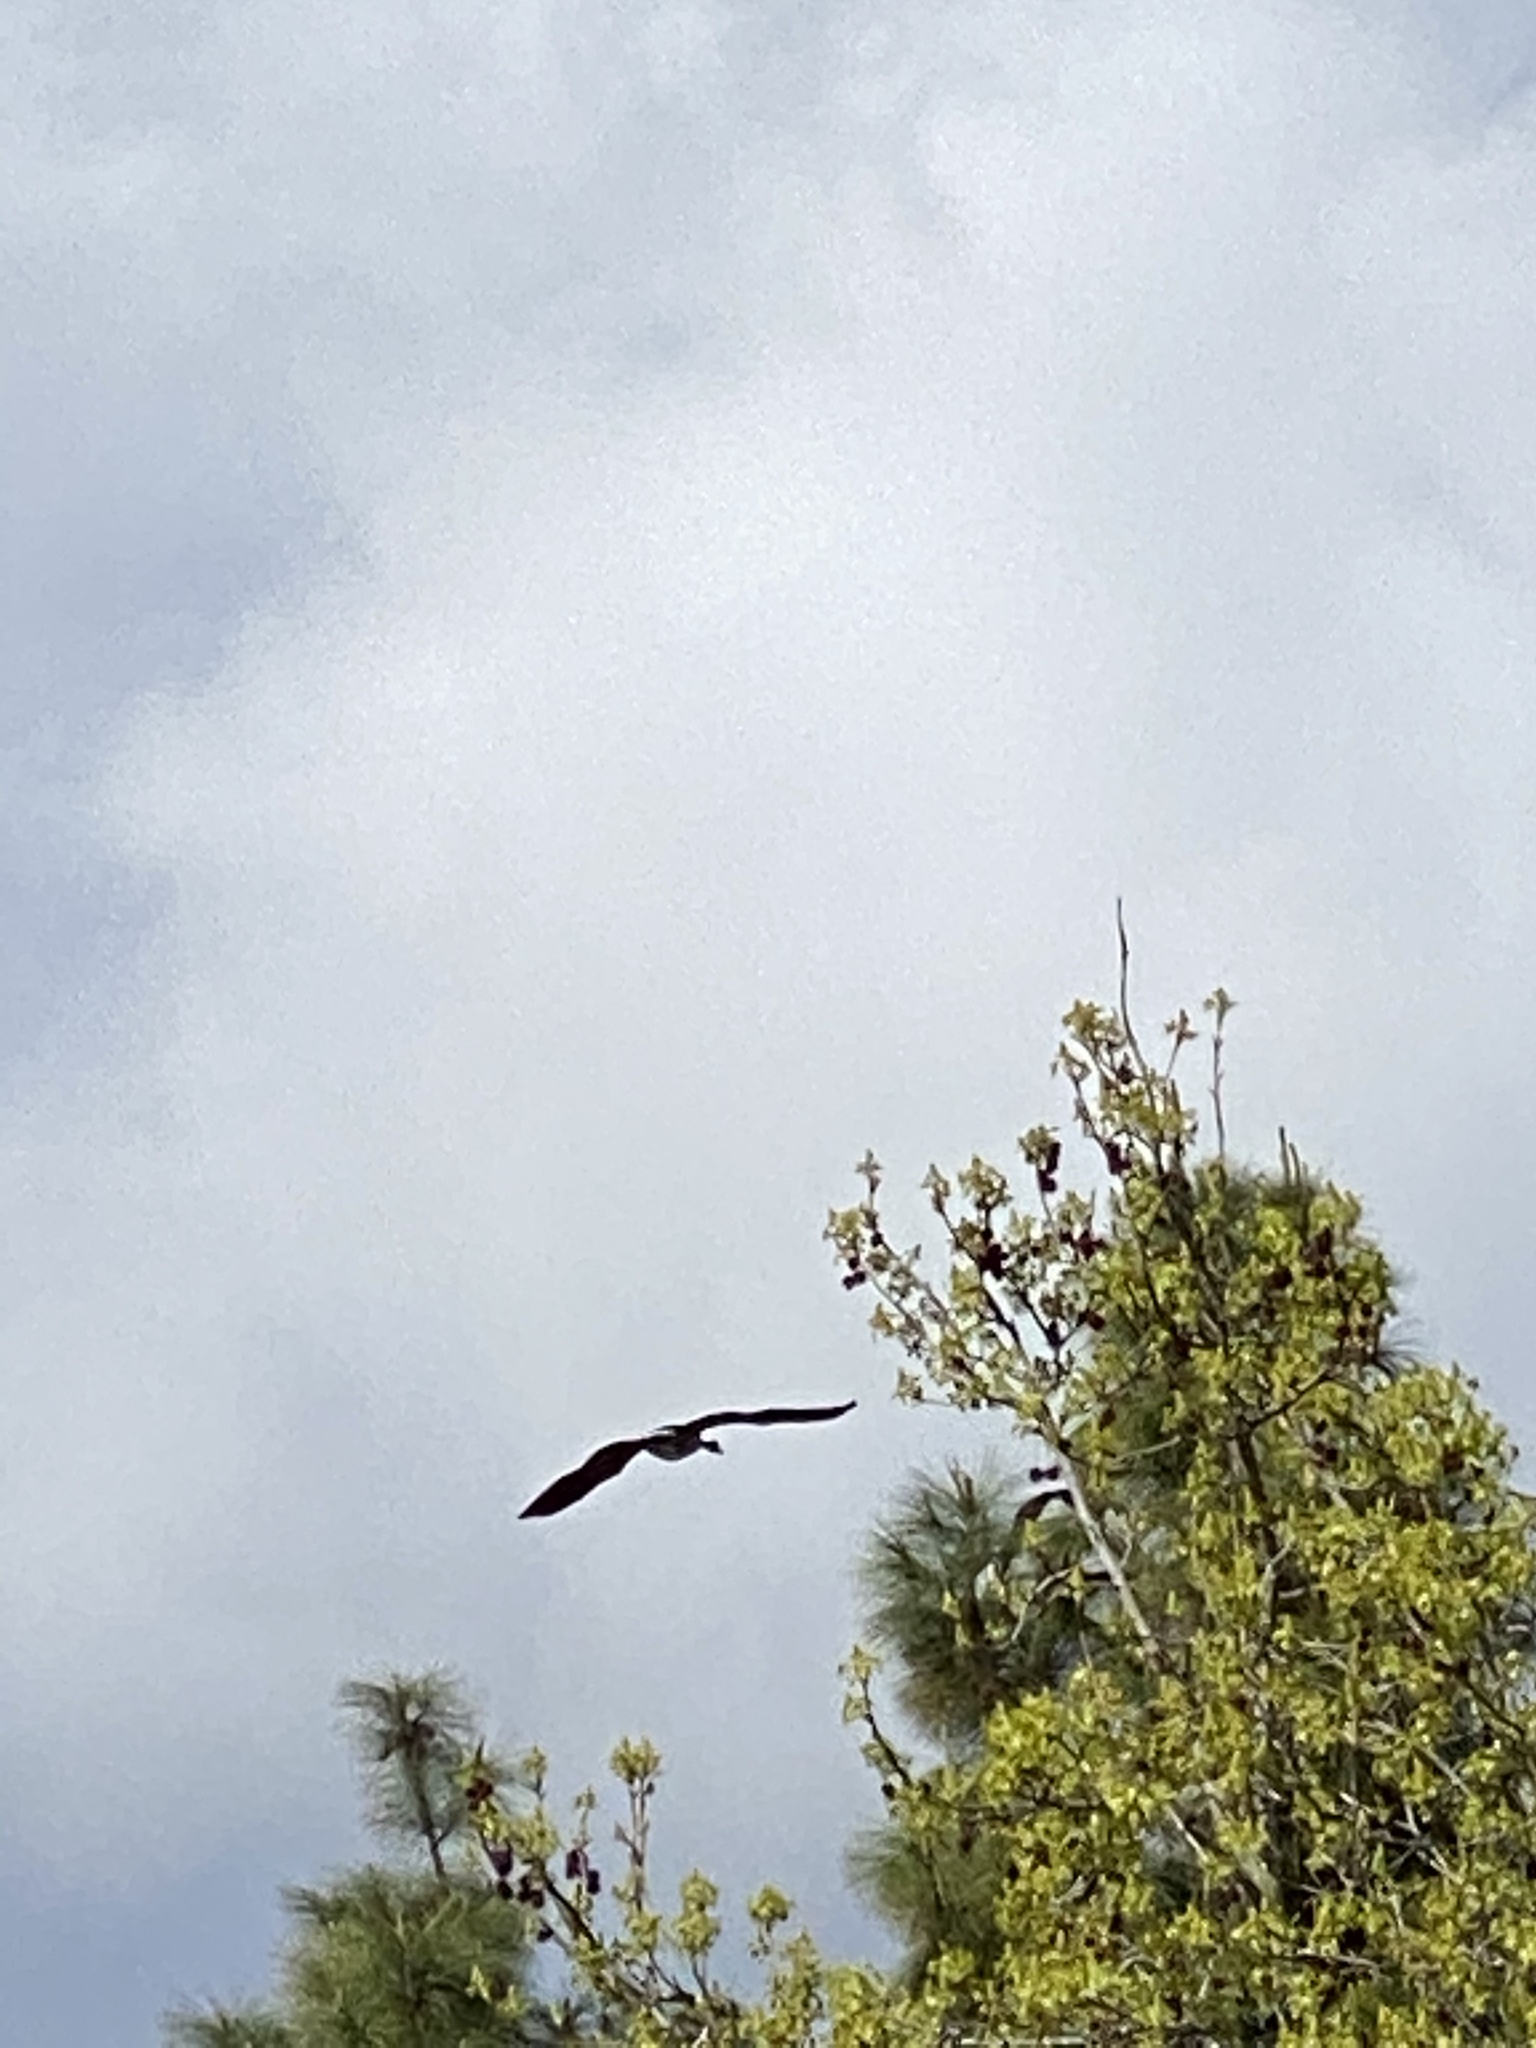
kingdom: Animalia
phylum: Chordata
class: Aves
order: Anseriformes
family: Anatidae
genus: Branta
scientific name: Branta canadensis
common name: Canada goose
